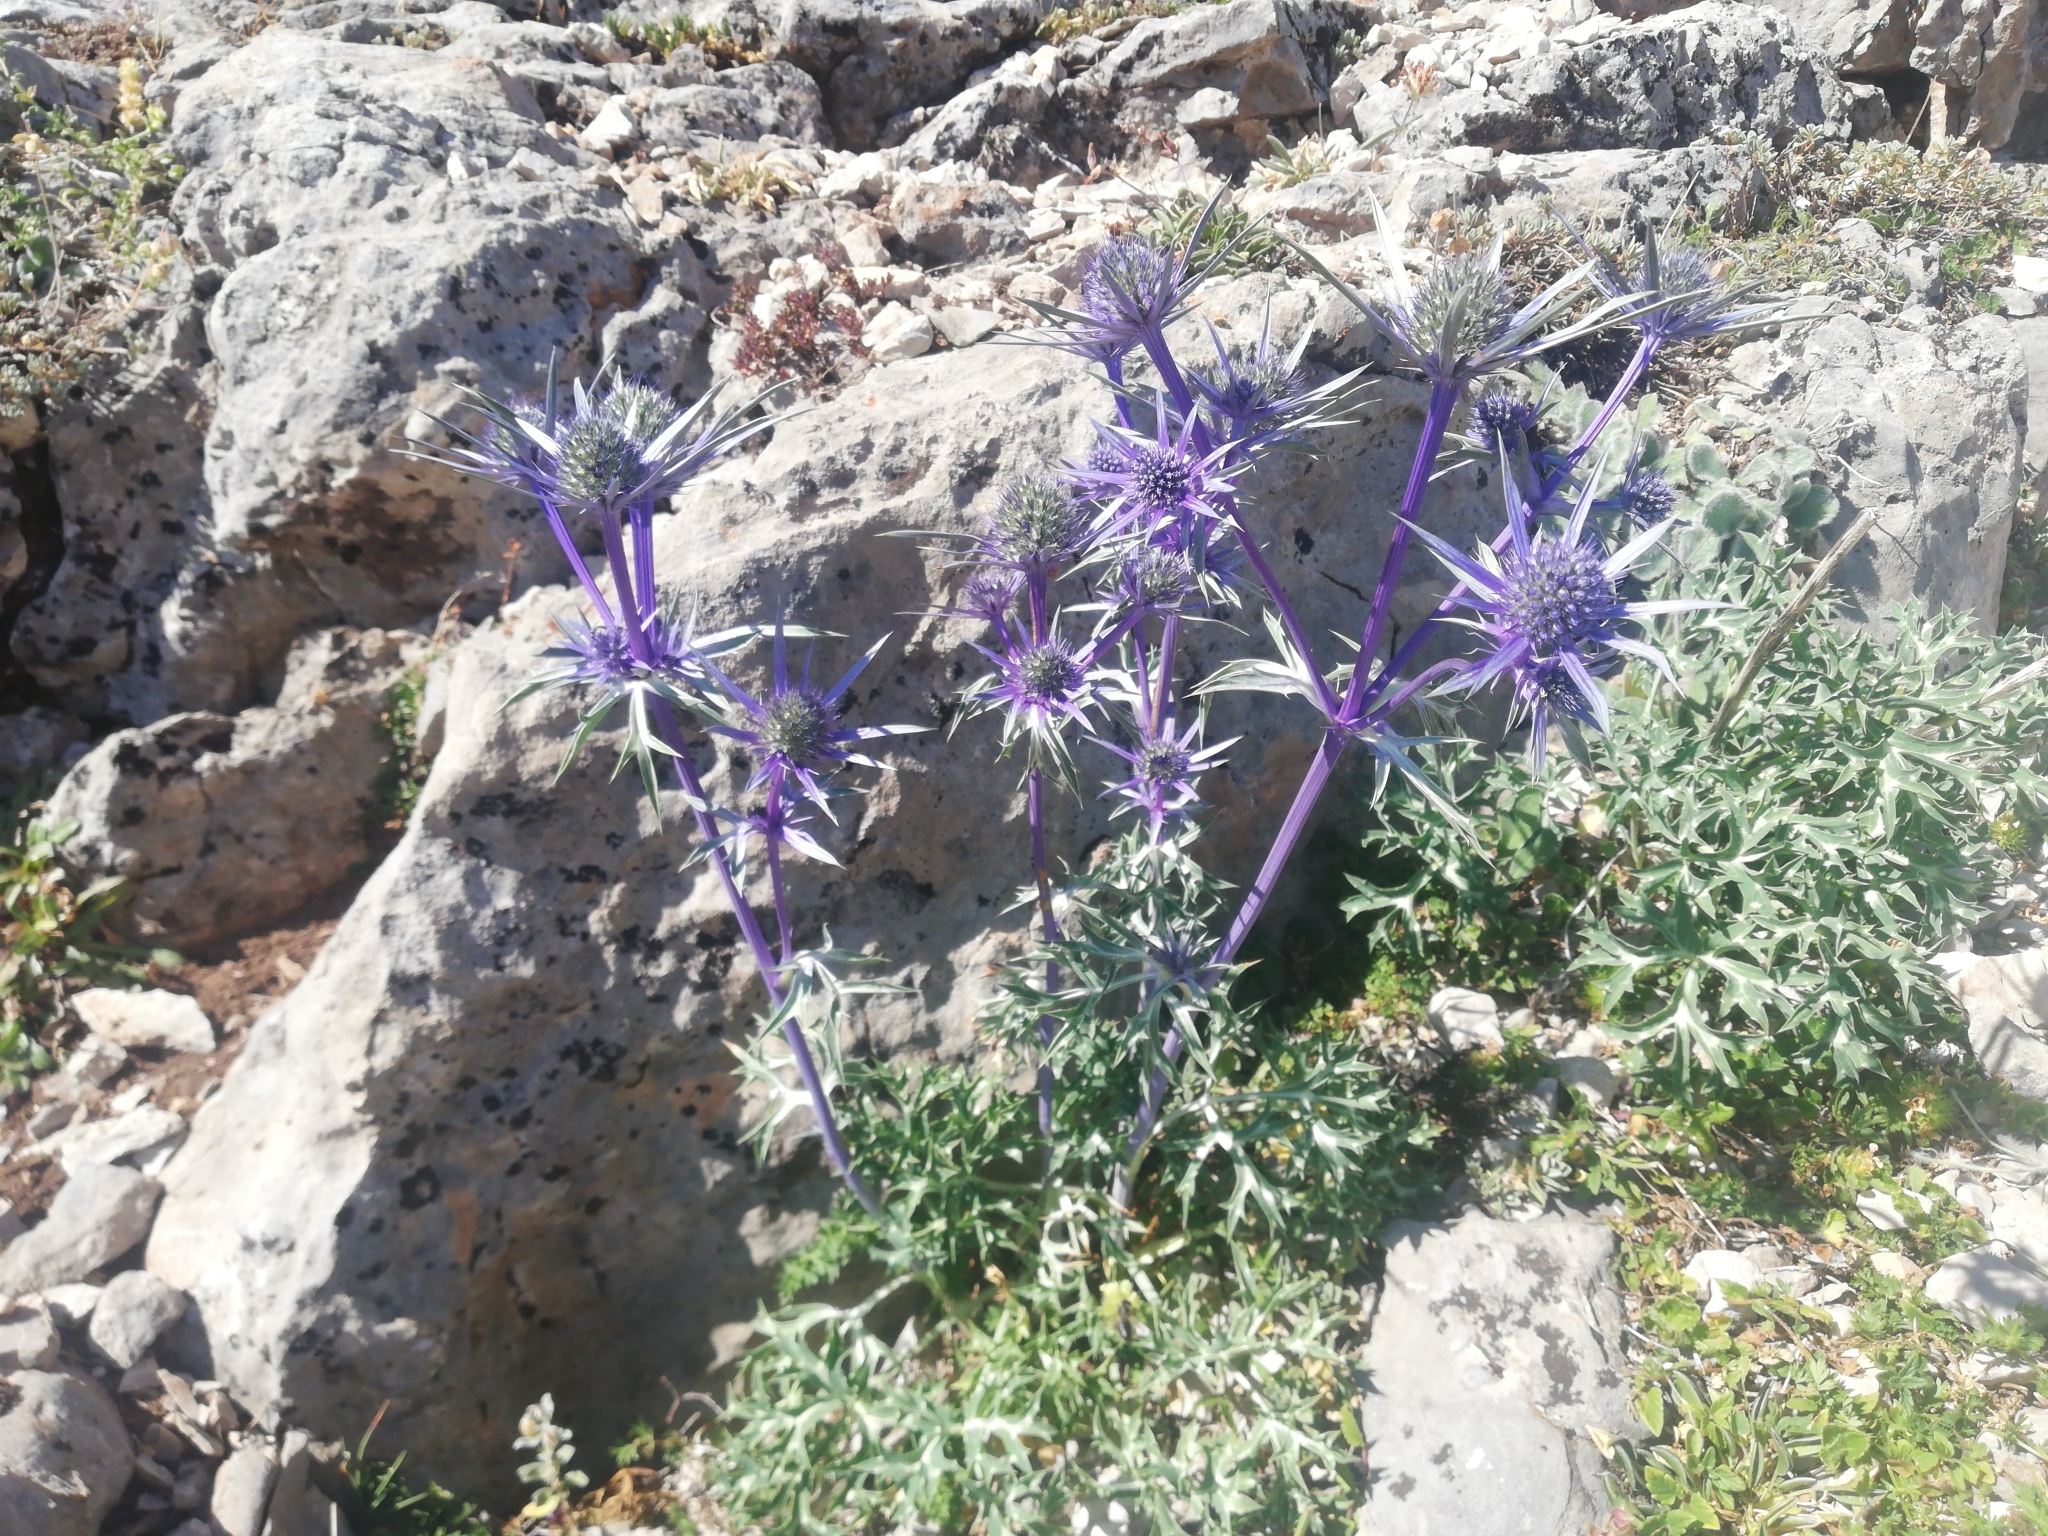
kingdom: Plantae
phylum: Tracheophyta
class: Magnoliopsida
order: Apiales
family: Apiaceae
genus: Eryngium
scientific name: Eryngium bourgatii
